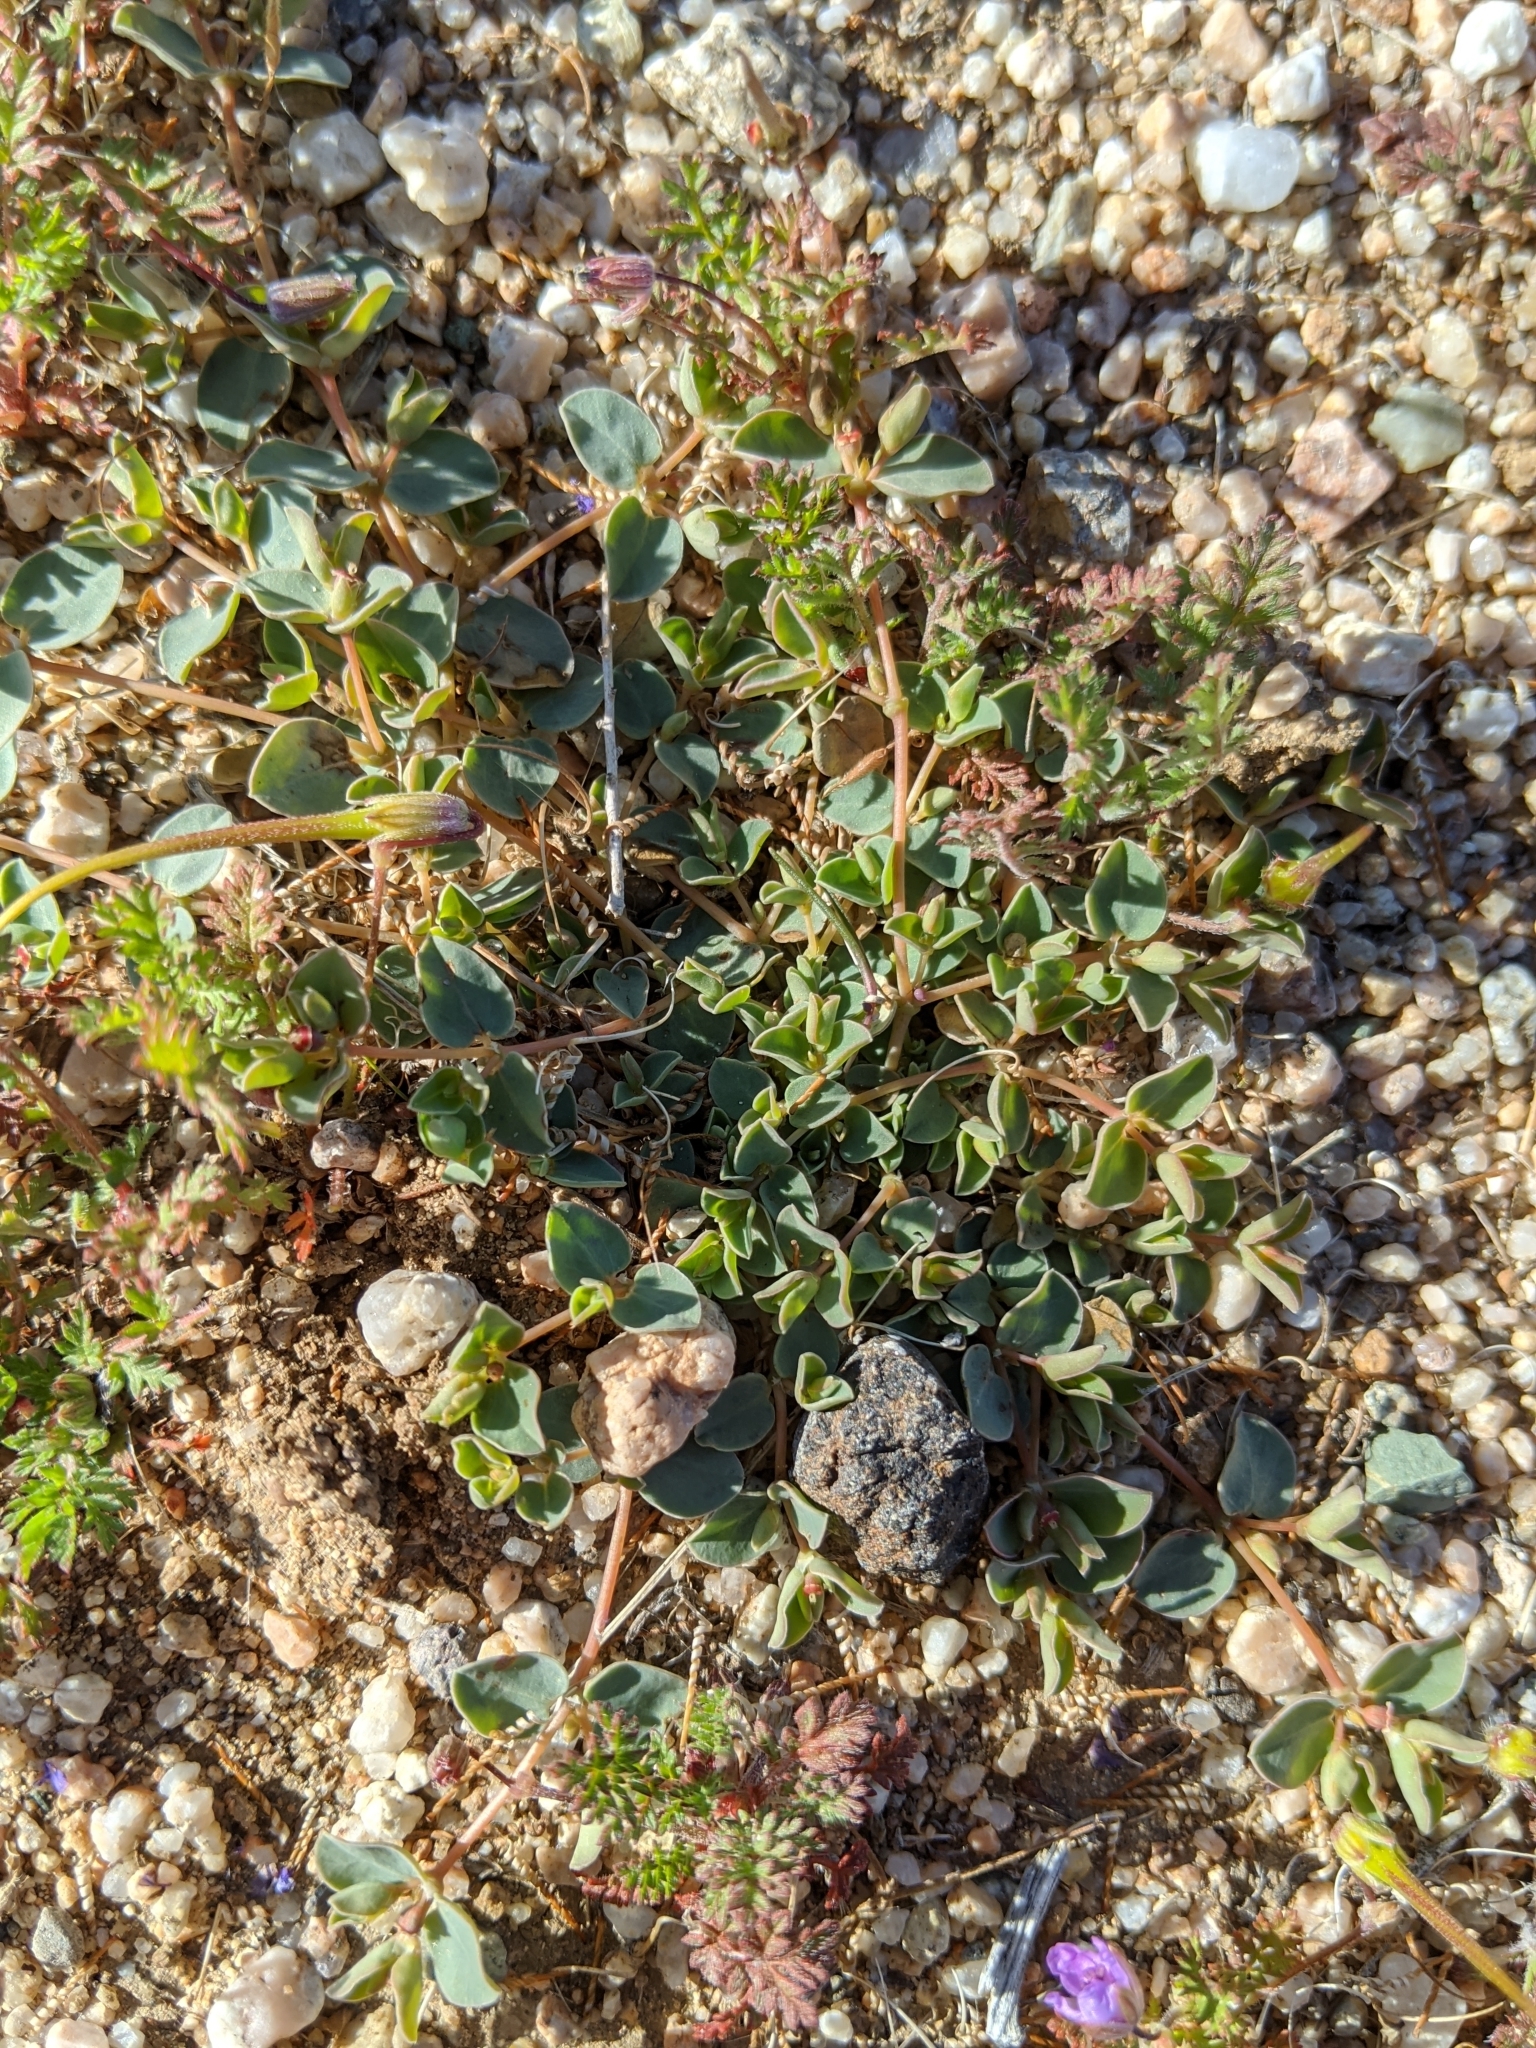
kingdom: Plantae
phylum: Tracheophyta
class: Magnoliopsida
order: Malpighiales
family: Euphorbiaceae
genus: Euphorbia
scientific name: Euphorbia albomarginata
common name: Whitemargin sandmat
